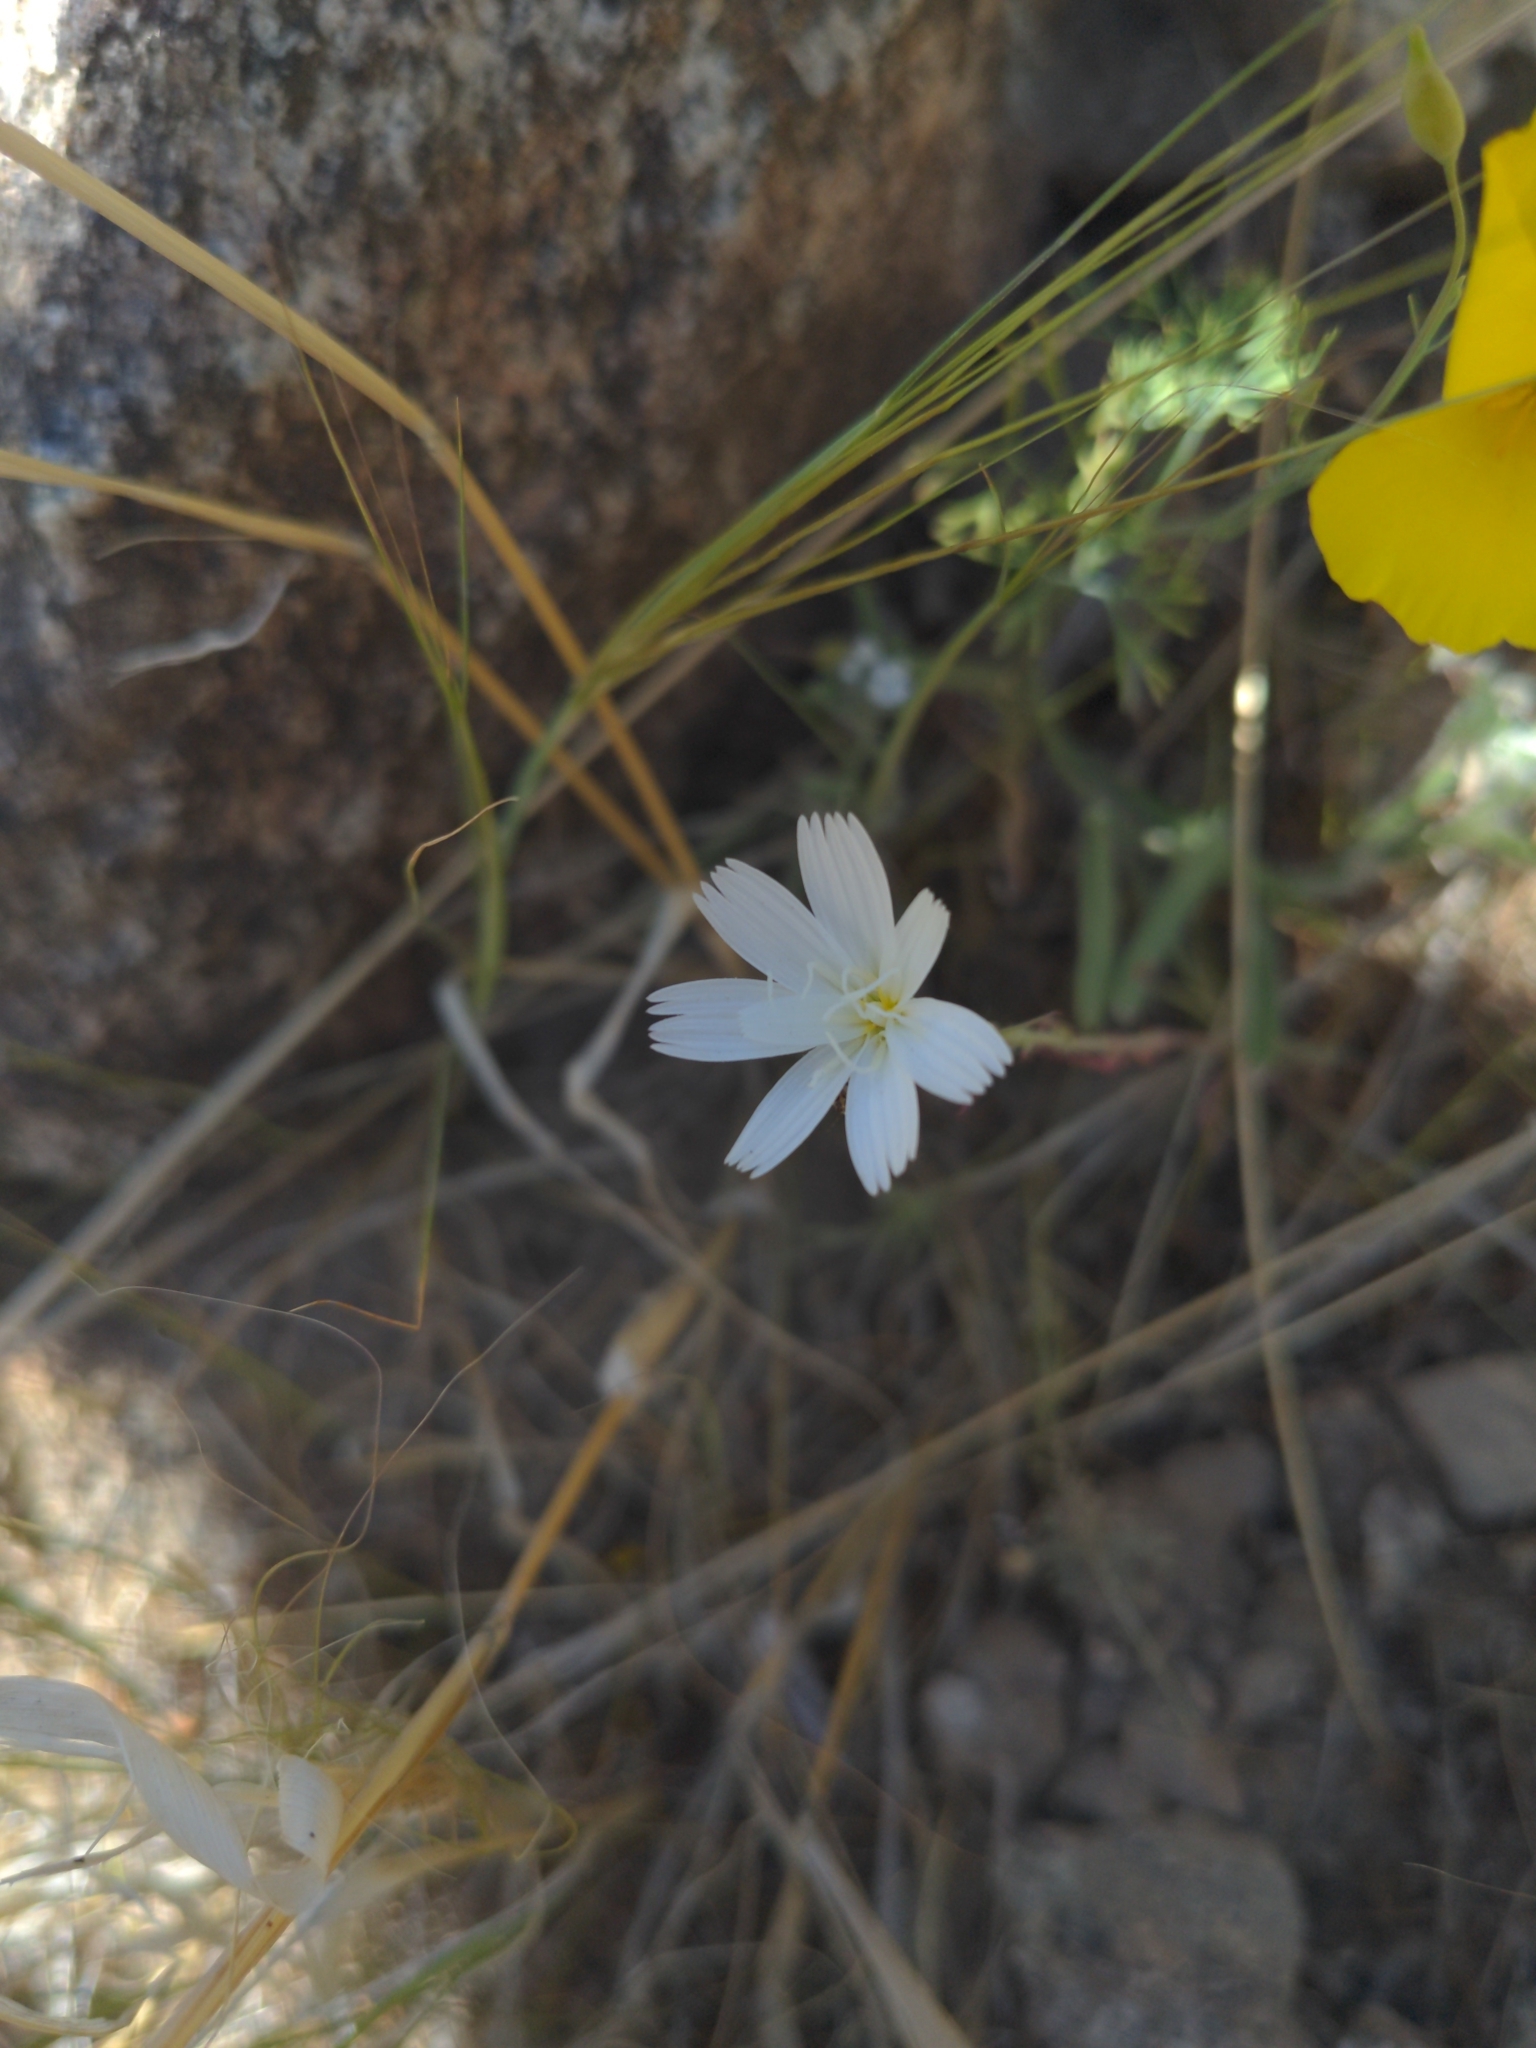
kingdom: Plantae
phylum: Tracheophyta
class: Magnoliopsida
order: Asterales
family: Asteraceae
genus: Rafinesquia
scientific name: Rafinesquia neomexicana
